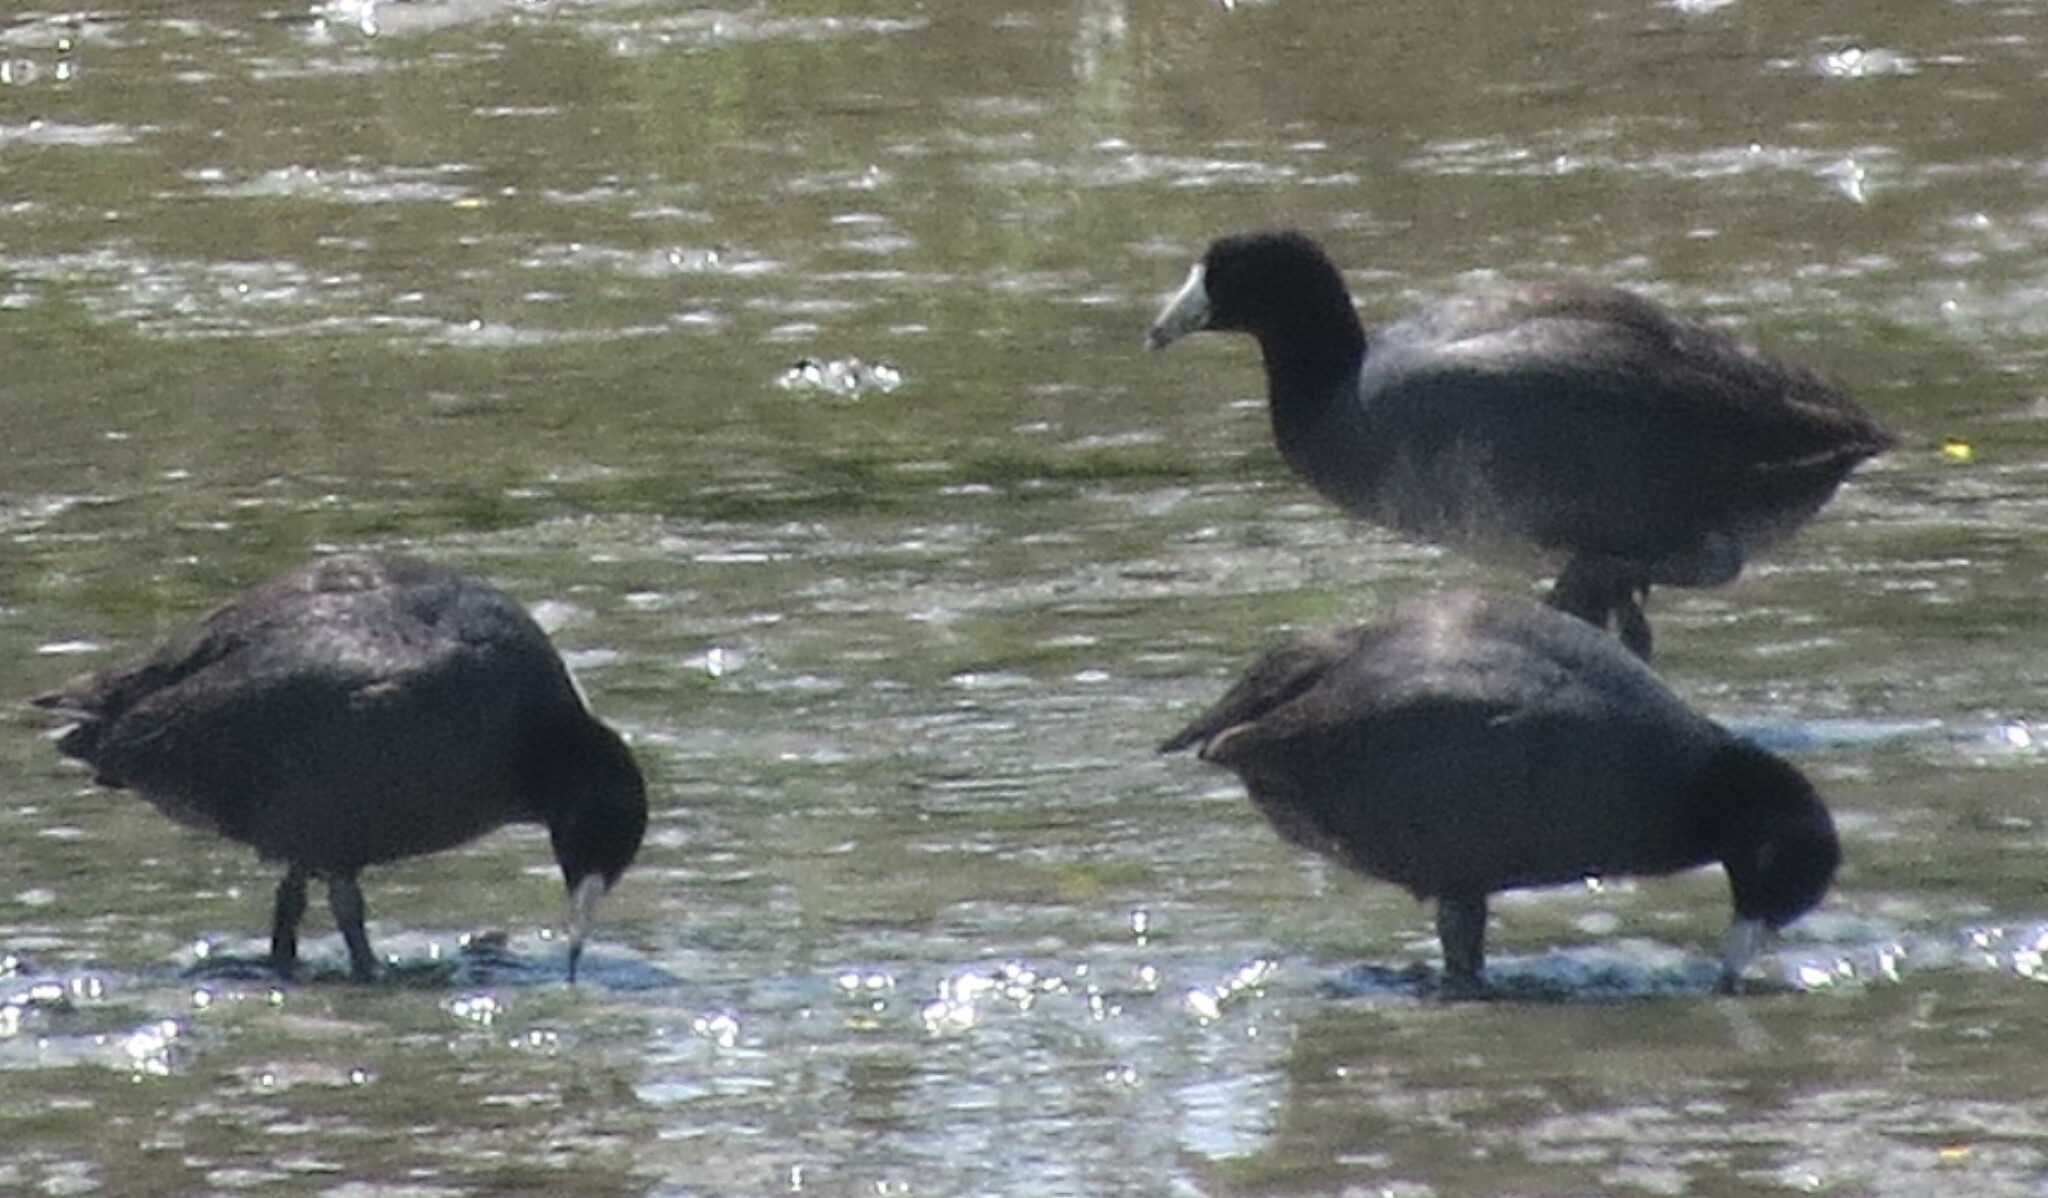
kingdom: Animalia
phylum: Chordata
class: Aves
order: Gruiformes
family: Rallidae
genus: Fulica
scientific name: Fulica americana
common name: American coot
